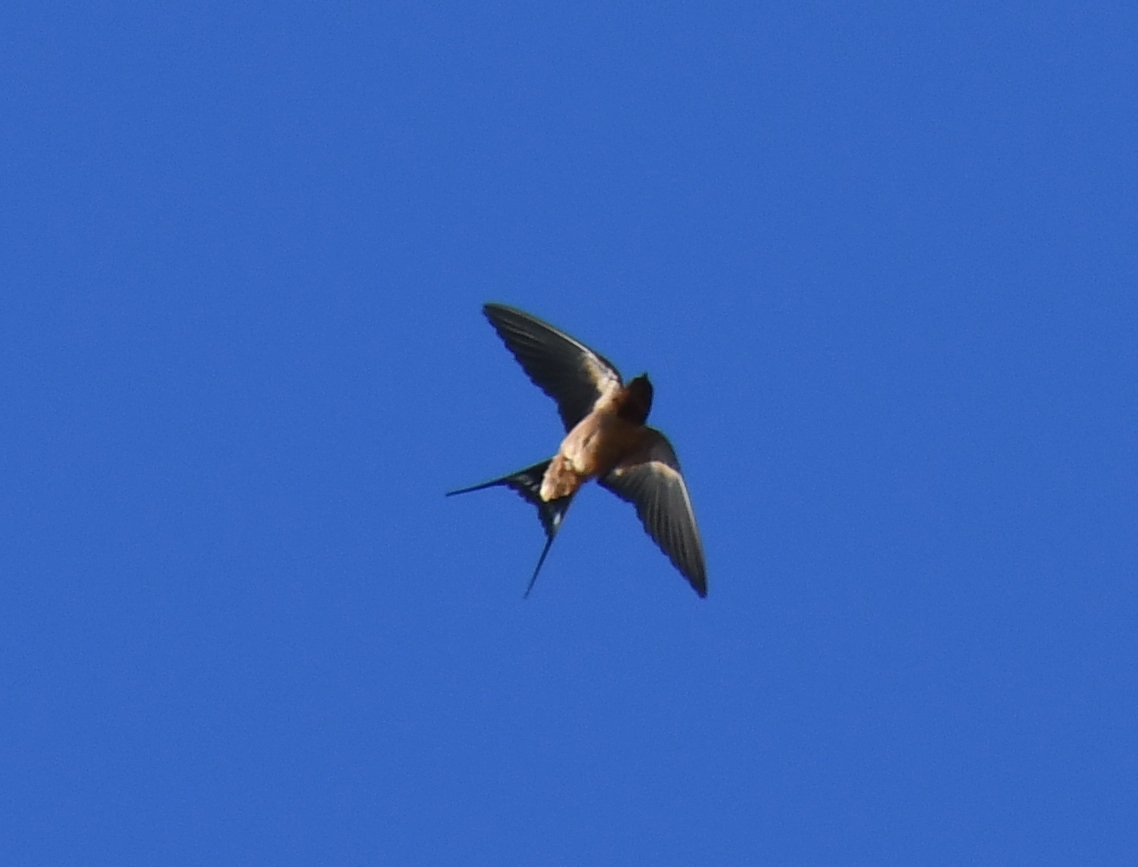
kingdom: Animalia
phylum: Chordata
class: Aves
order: Passeriformes
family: Hirundinidae
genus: Hirundo
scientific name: Hirundo rustica
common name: Barn swallow
